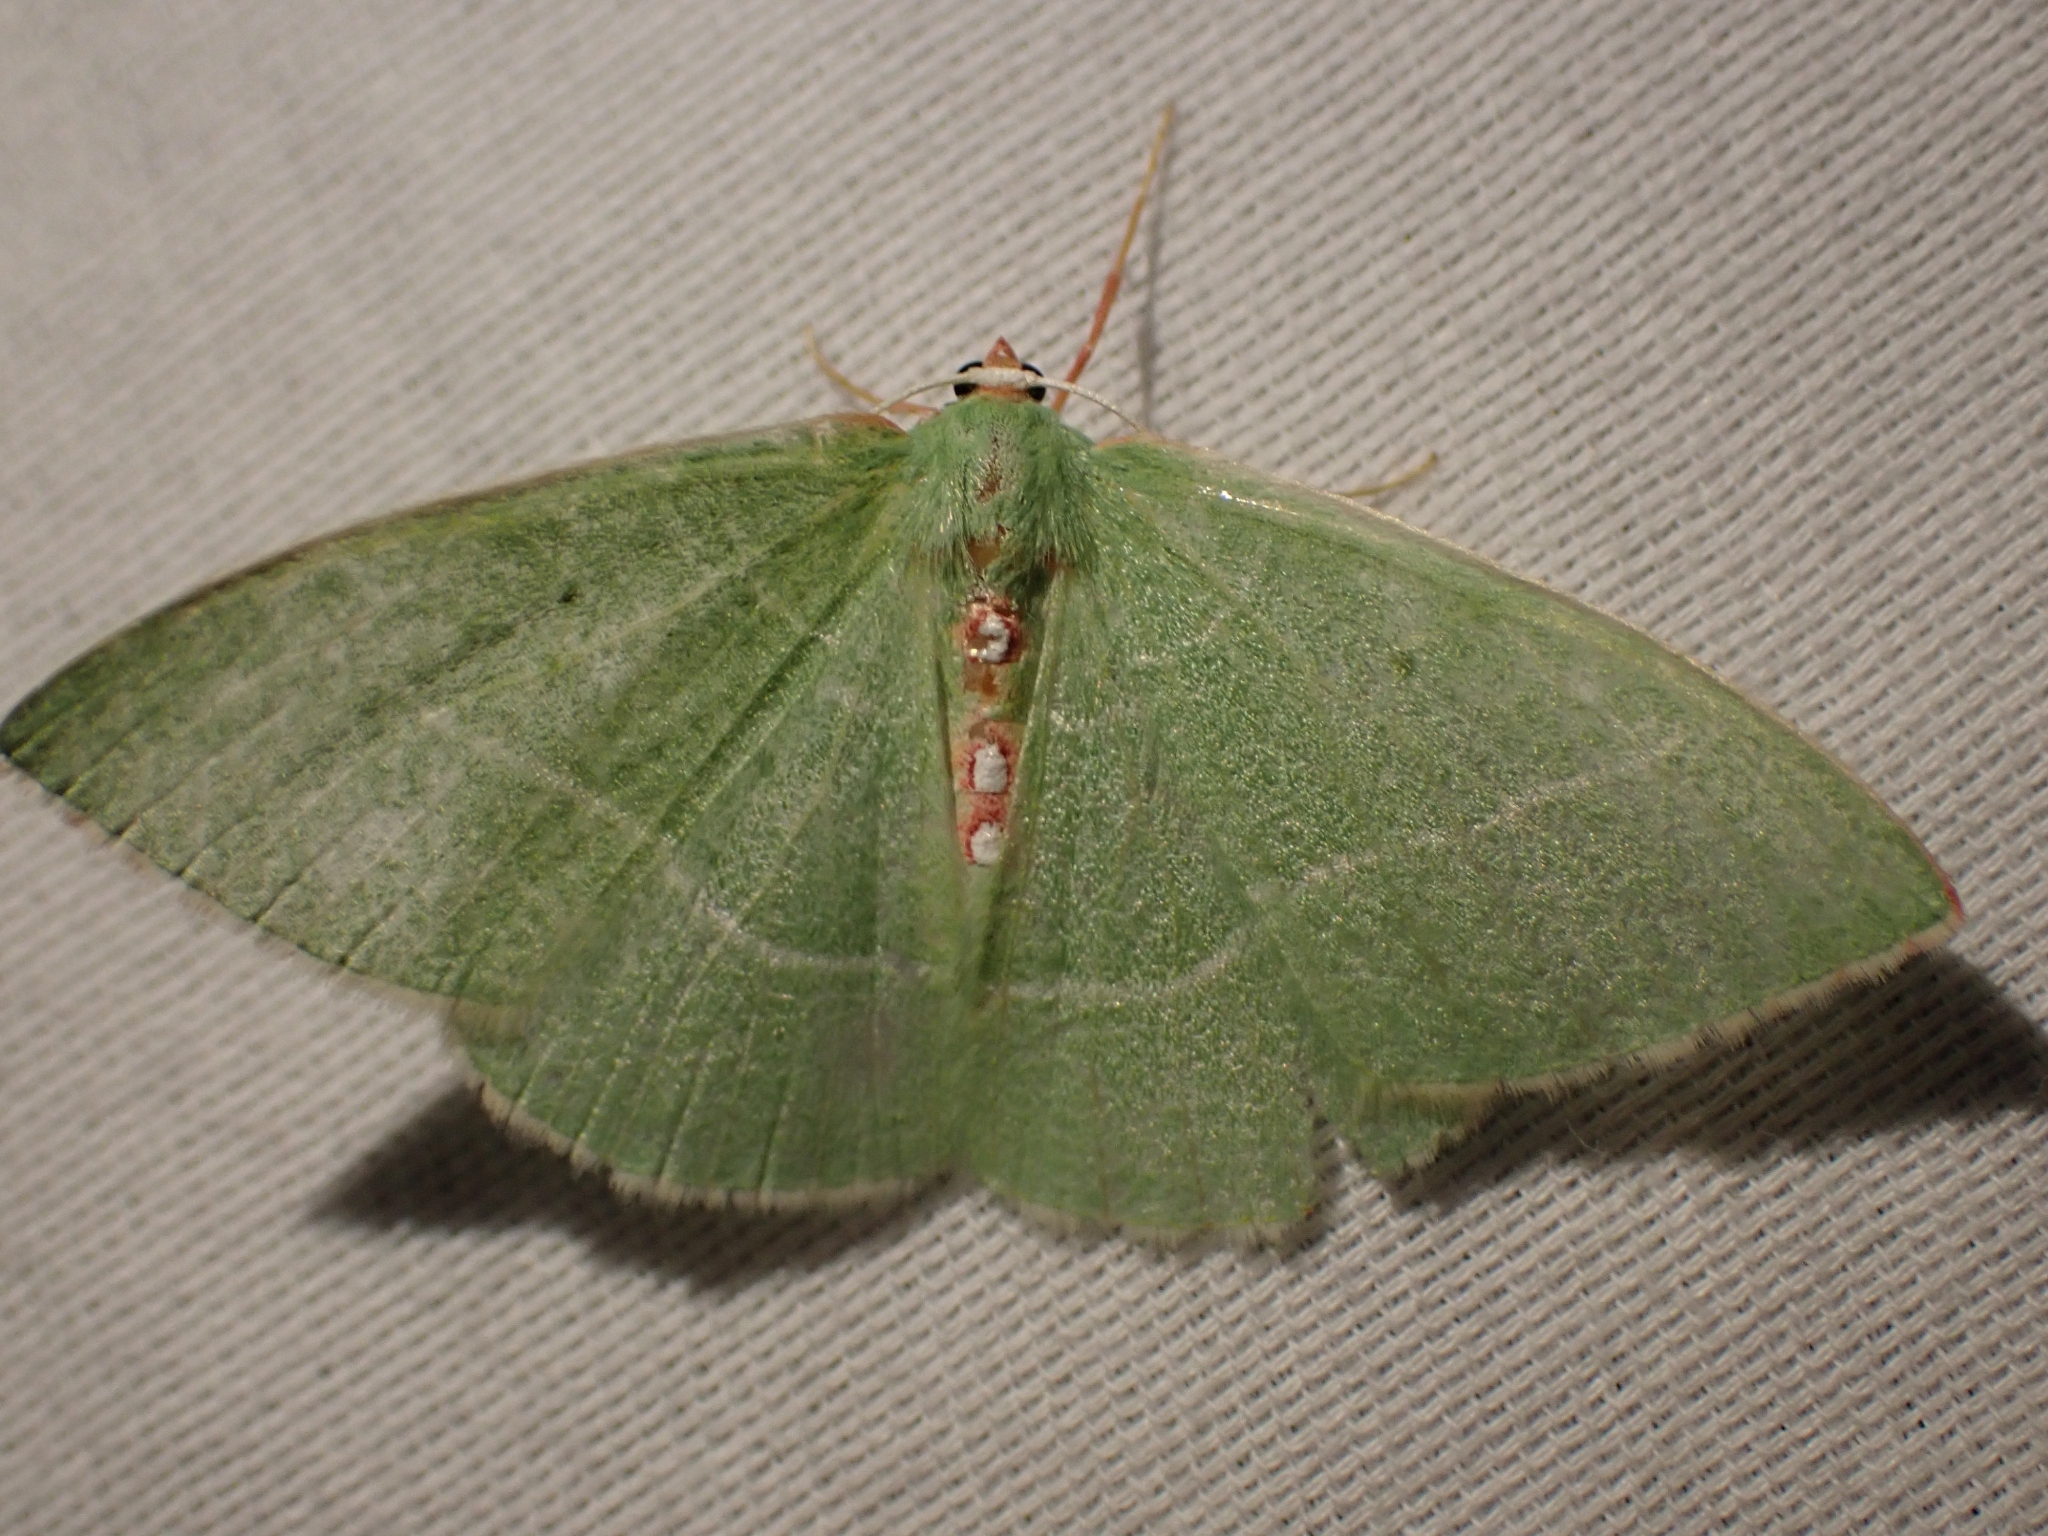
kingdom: Animalia
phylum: Arthropoda
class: Insecta
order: Lepidoptera
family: Geometridae
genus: Nemoria
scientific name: Nemoria darwiniata
